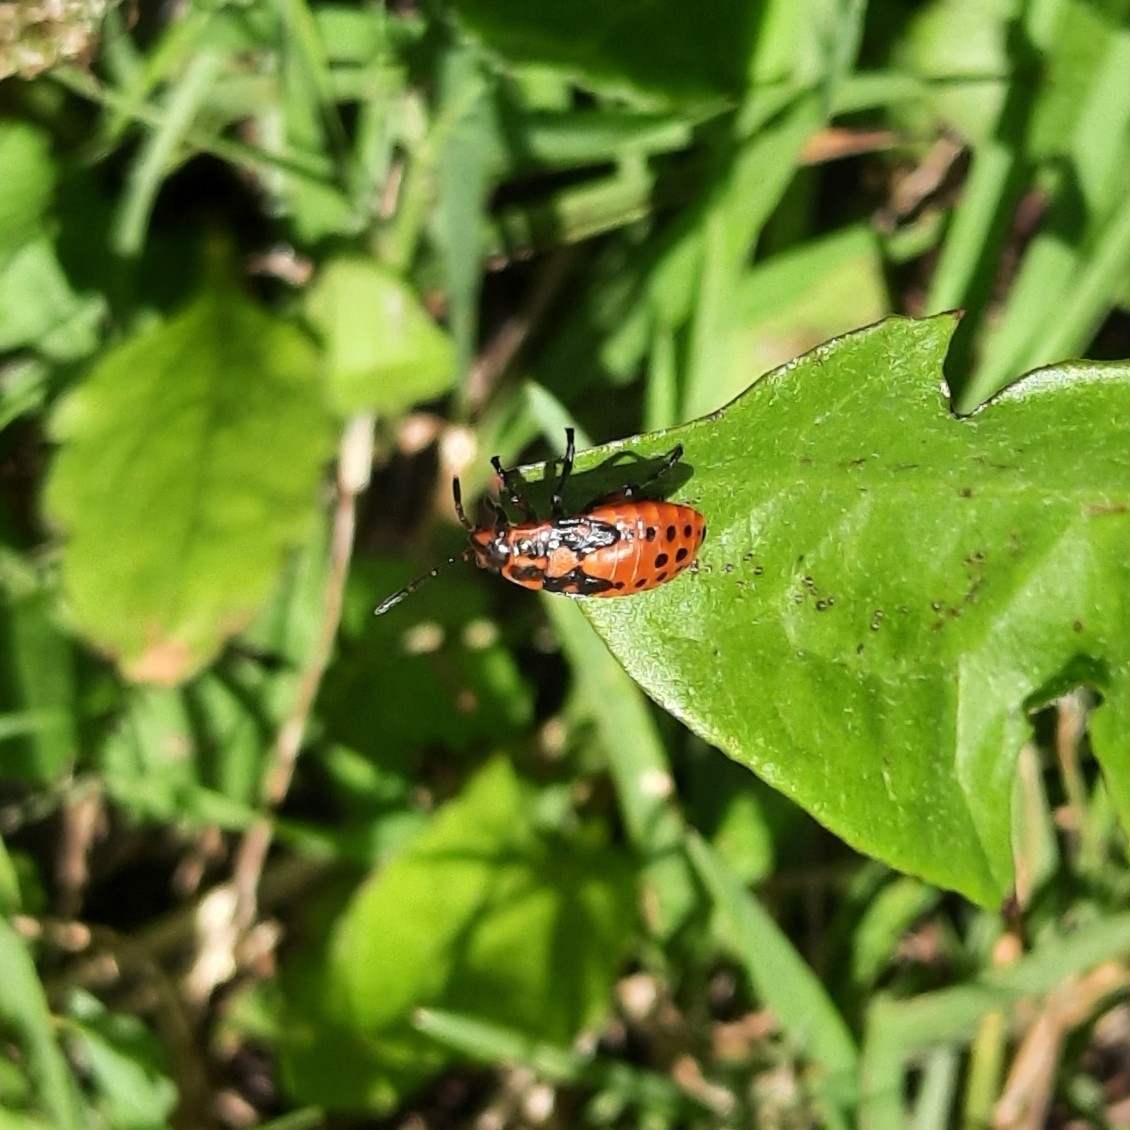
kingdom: Animalia
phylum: Arthropoda
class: Insecta
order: Hemiptera
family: Lygaeidae
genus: Spilostethus
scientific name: Spilostethus saxatilis
